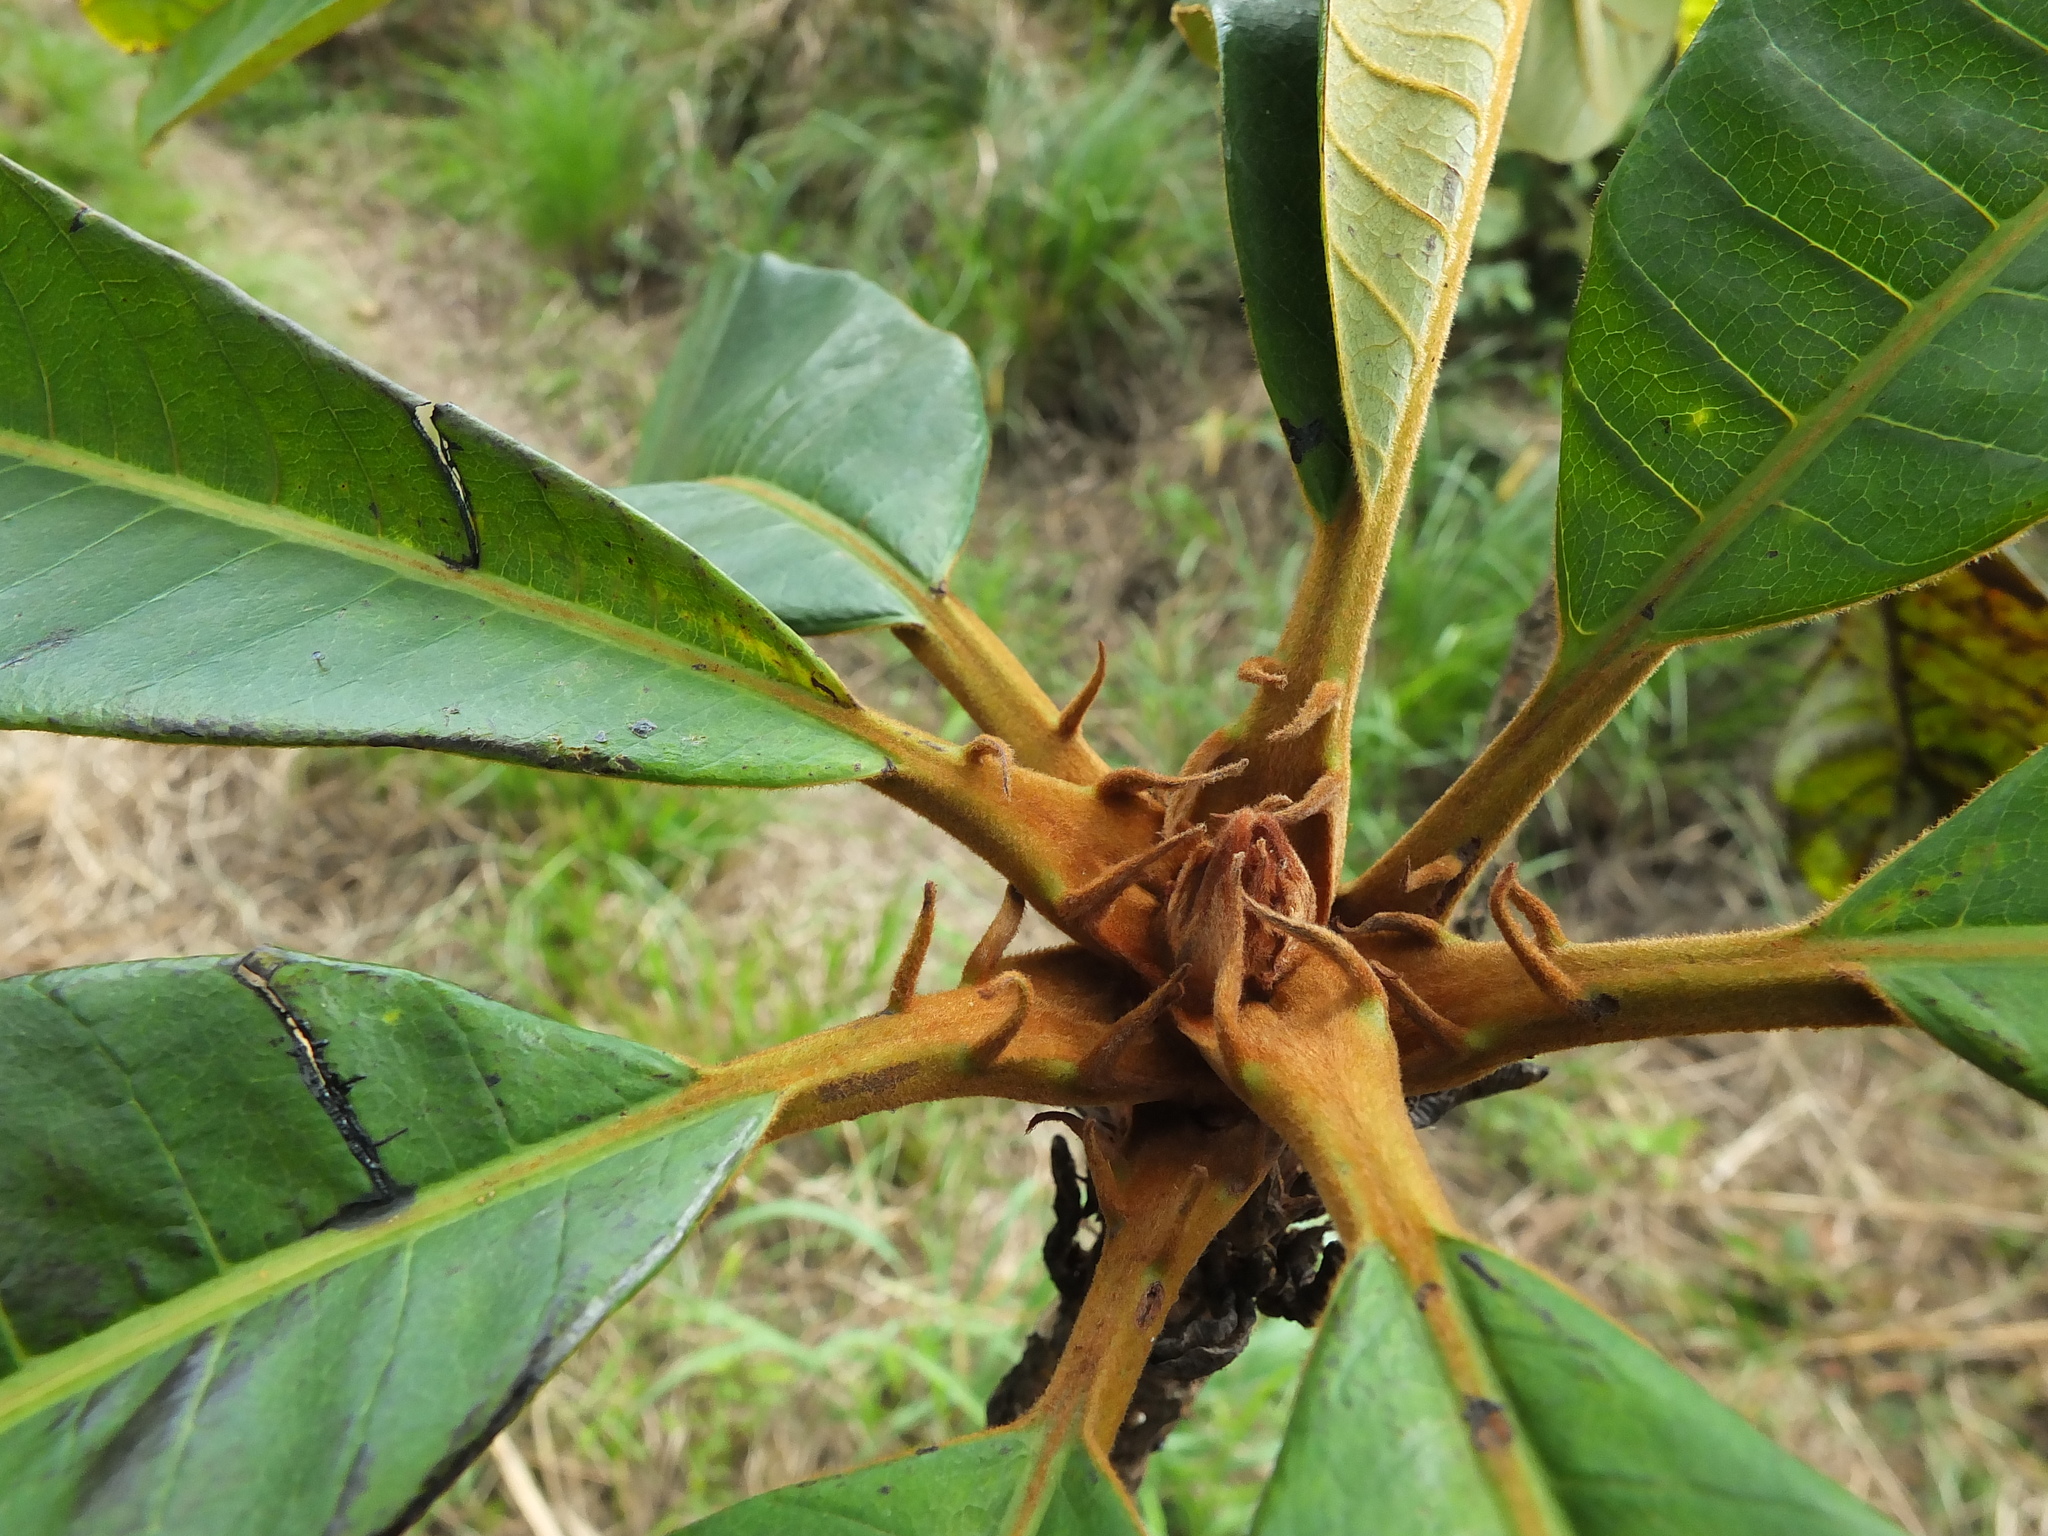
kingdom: Plantae
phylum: Tracheophyta
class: Magnoliopsida
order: Sapindales
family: Anacardiaceae
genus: Holigarna
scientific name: Holigarna grahamii
